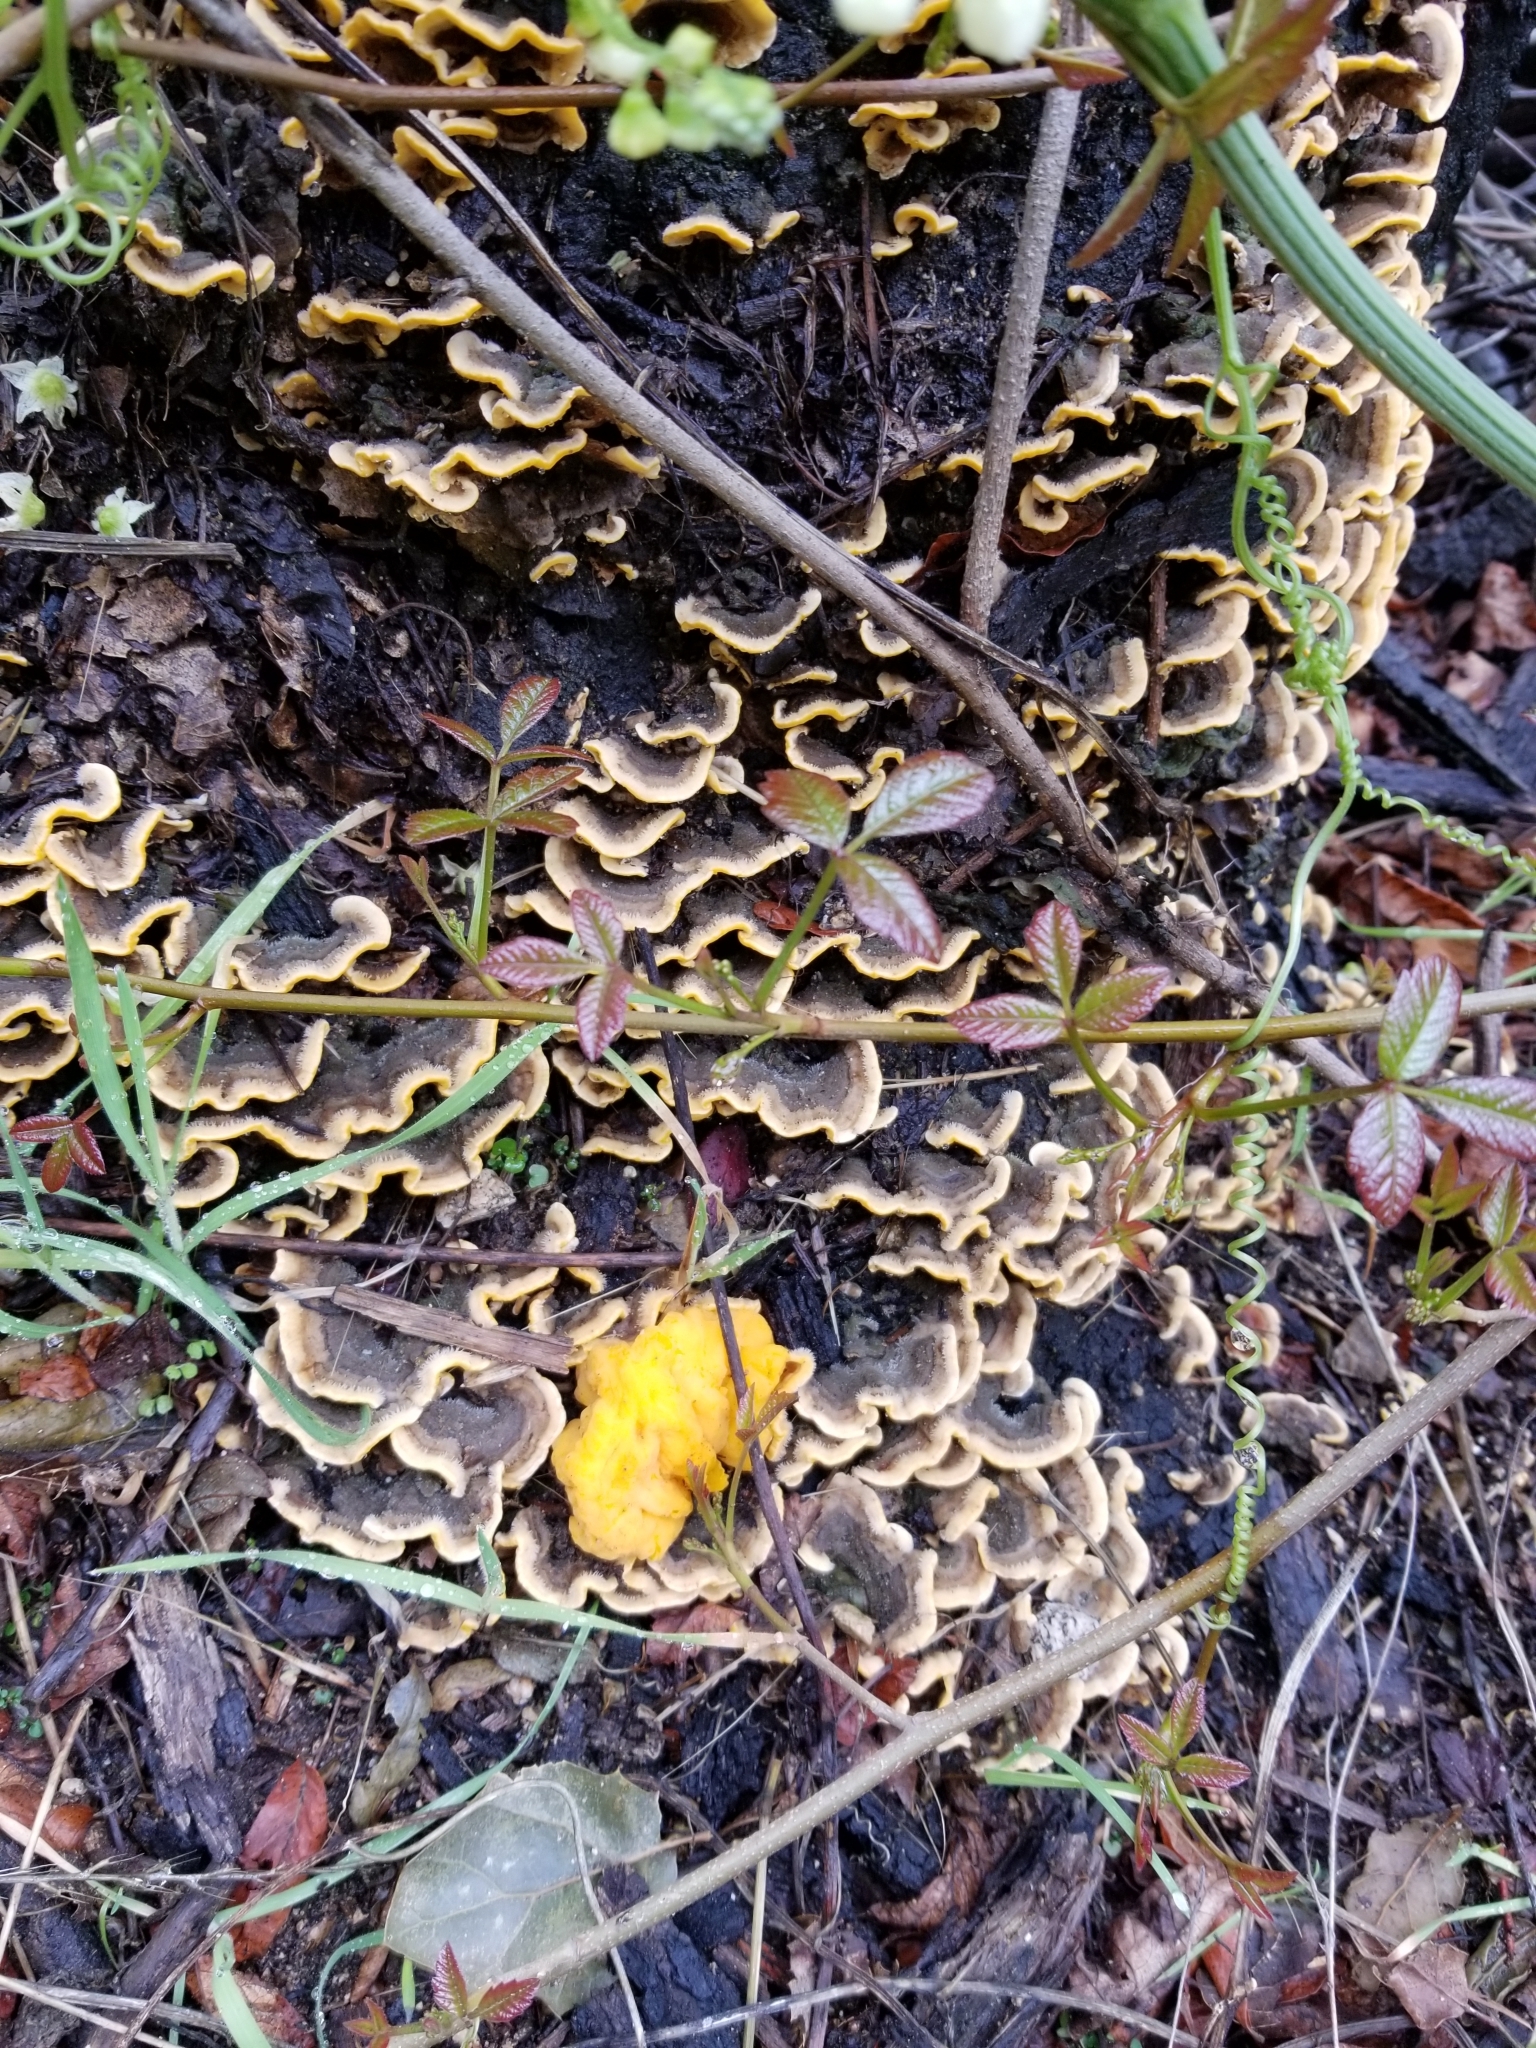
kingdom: Fungi
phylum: Basidiomycota
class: Tremellomycetes
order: Tremellales
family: Naemateliaceae
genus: Naematelia
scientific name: Naematelia aurantia
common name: Golden ear
